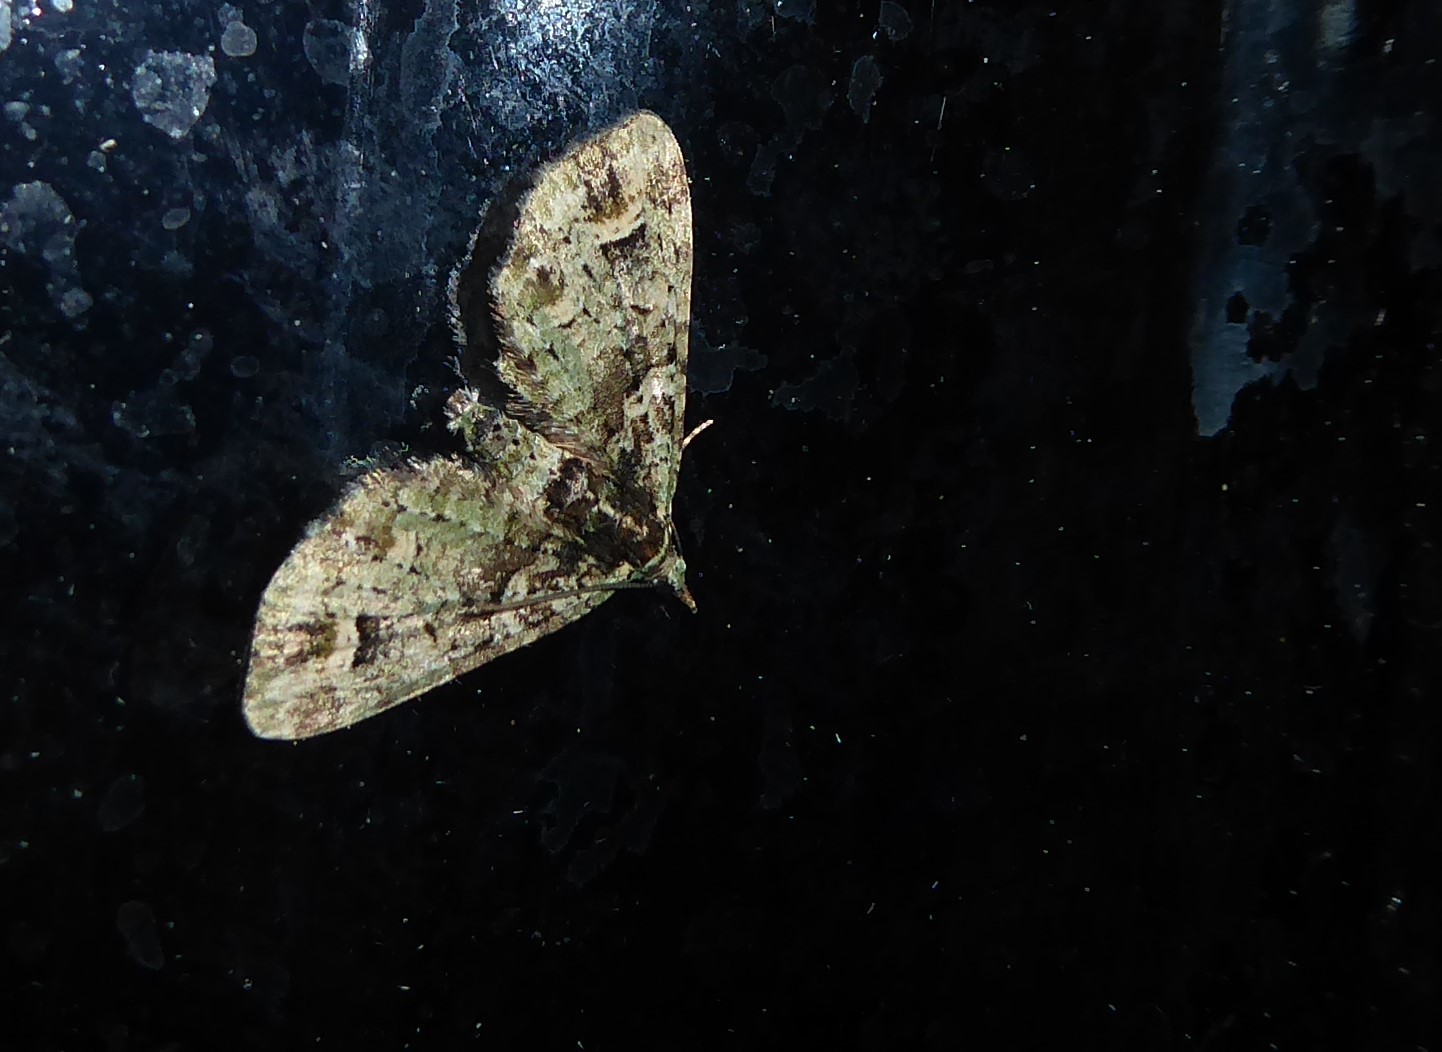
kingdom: Animalia
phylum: Arthropoda
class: Insecta
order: Lepidoptera
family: Geometridae
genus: Idaea
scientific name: Idaea mutanda
